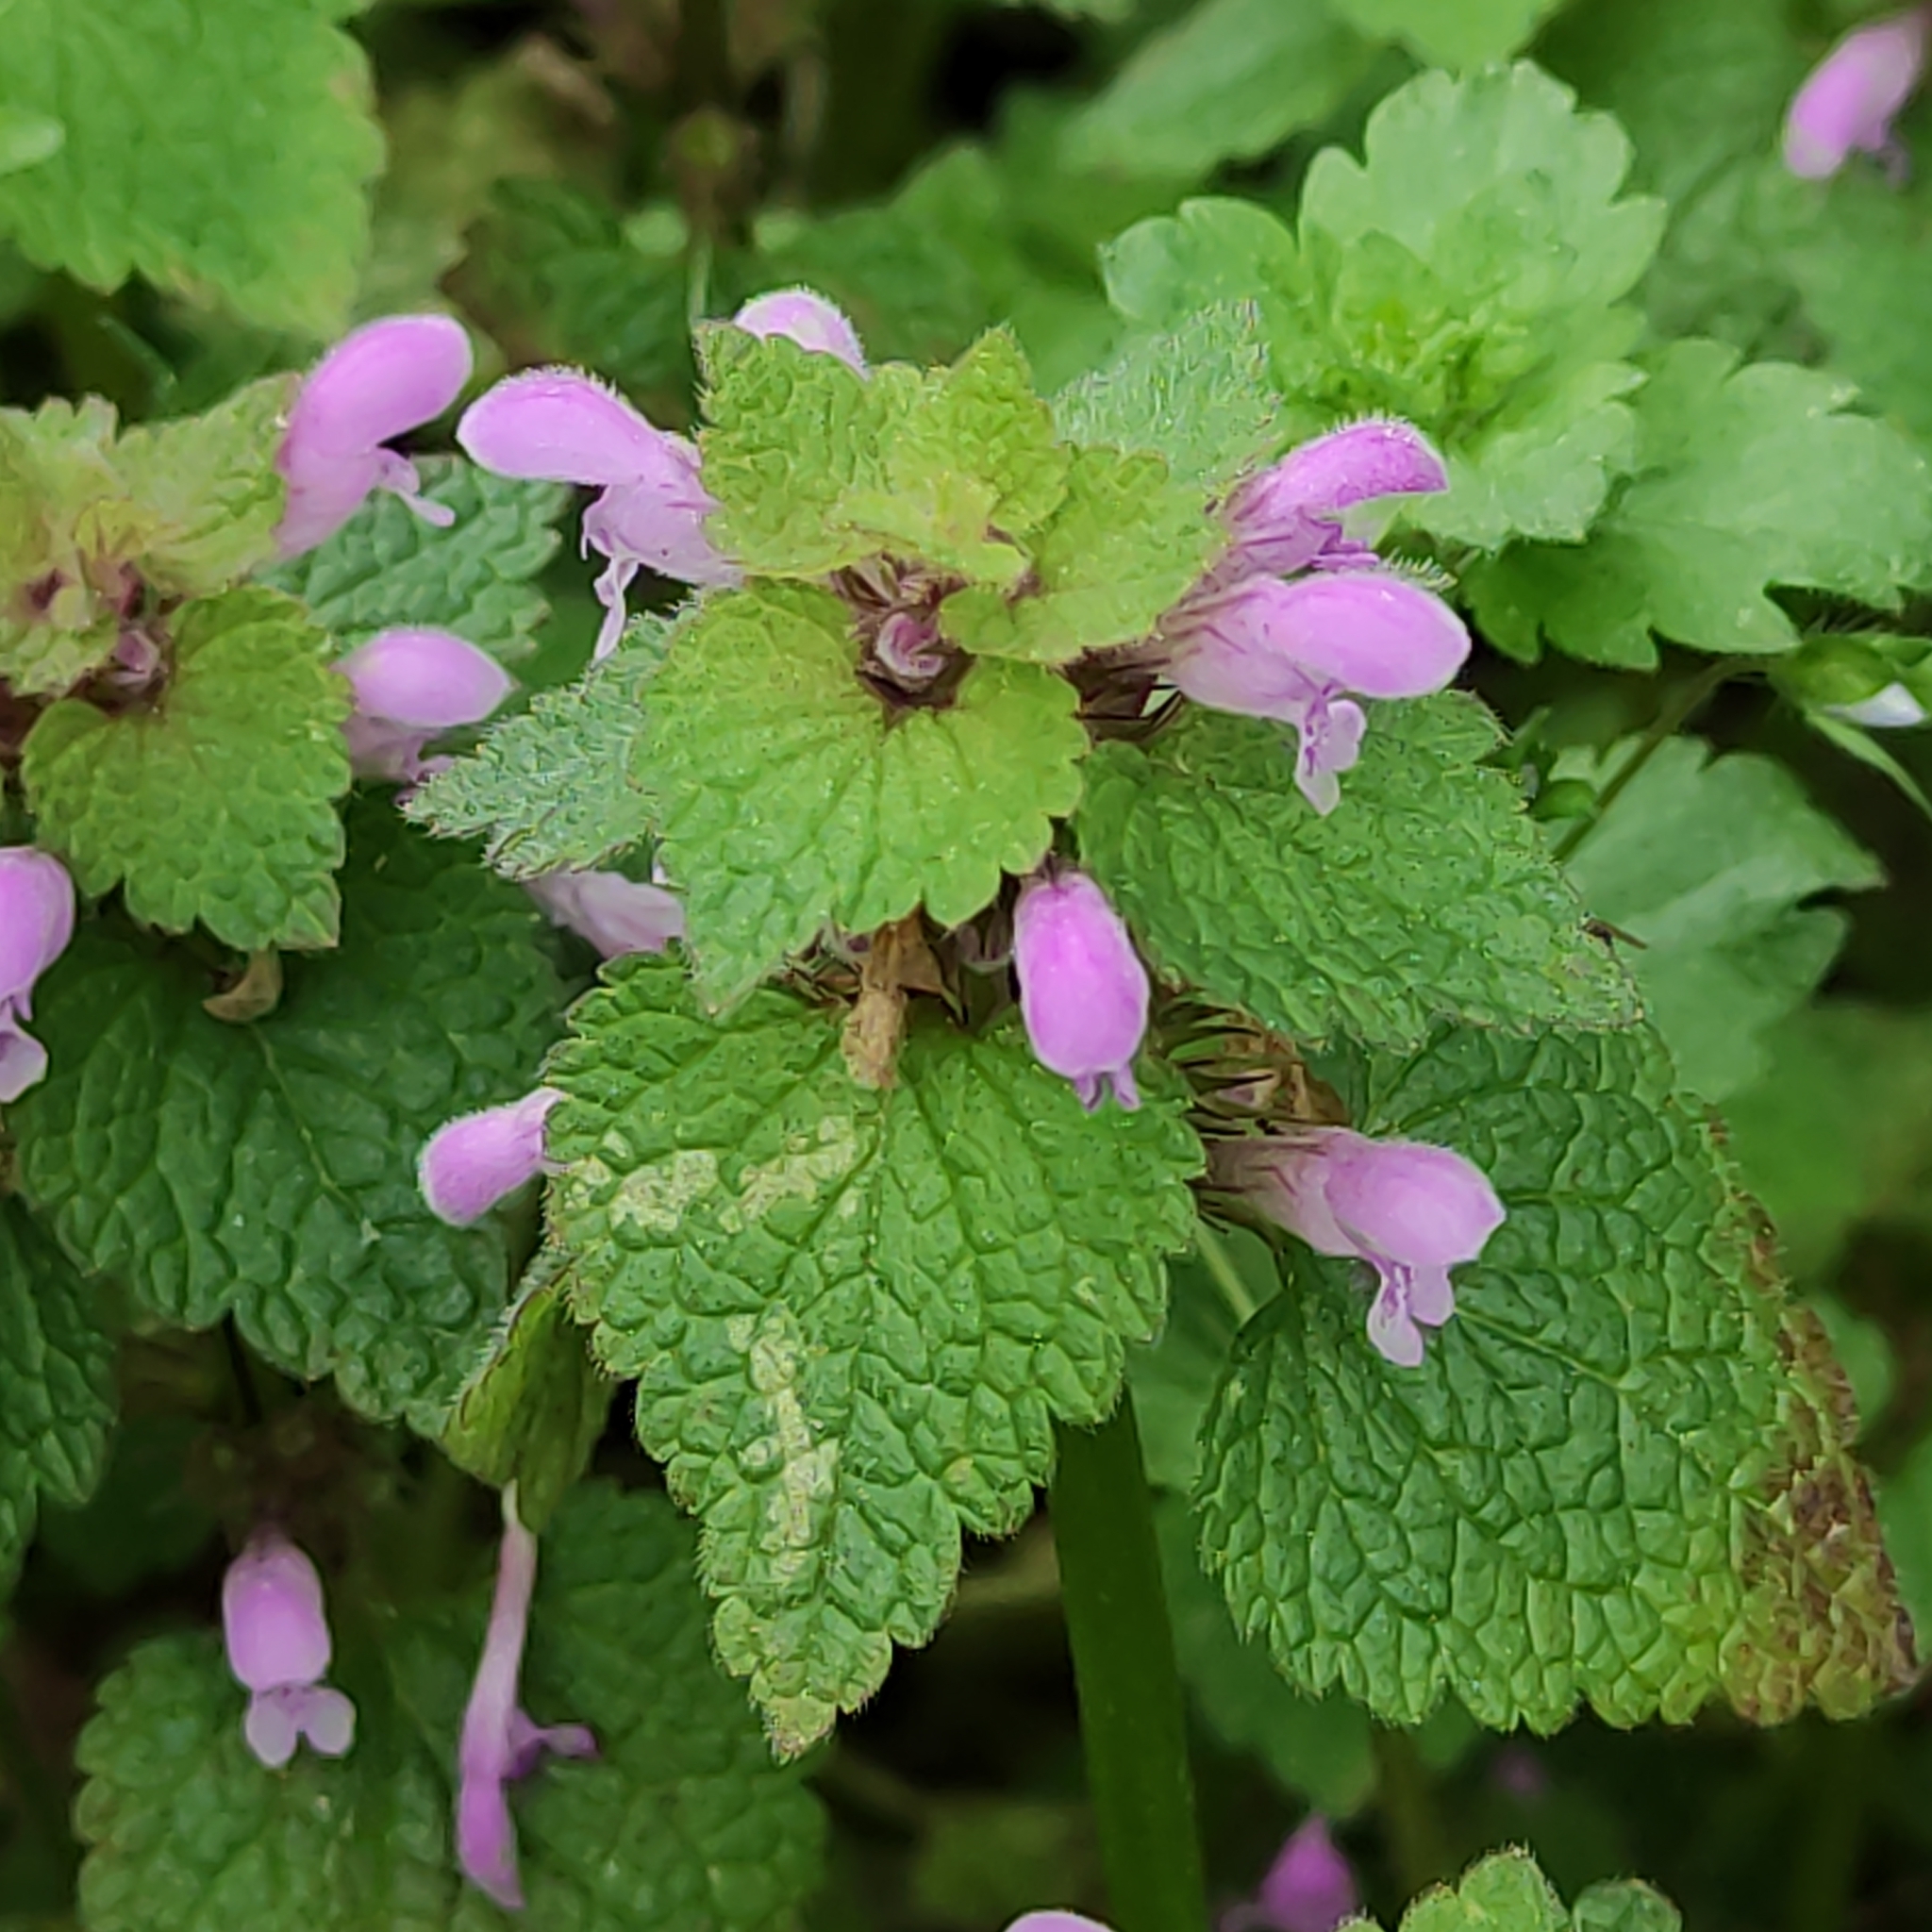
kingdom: Plantae
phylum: Tracheophyta
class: Magnoliopsida
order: Lamiales
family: Lamiaceae
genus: Lamium
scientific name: Lamium purpureum
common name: Red dead-nettle
